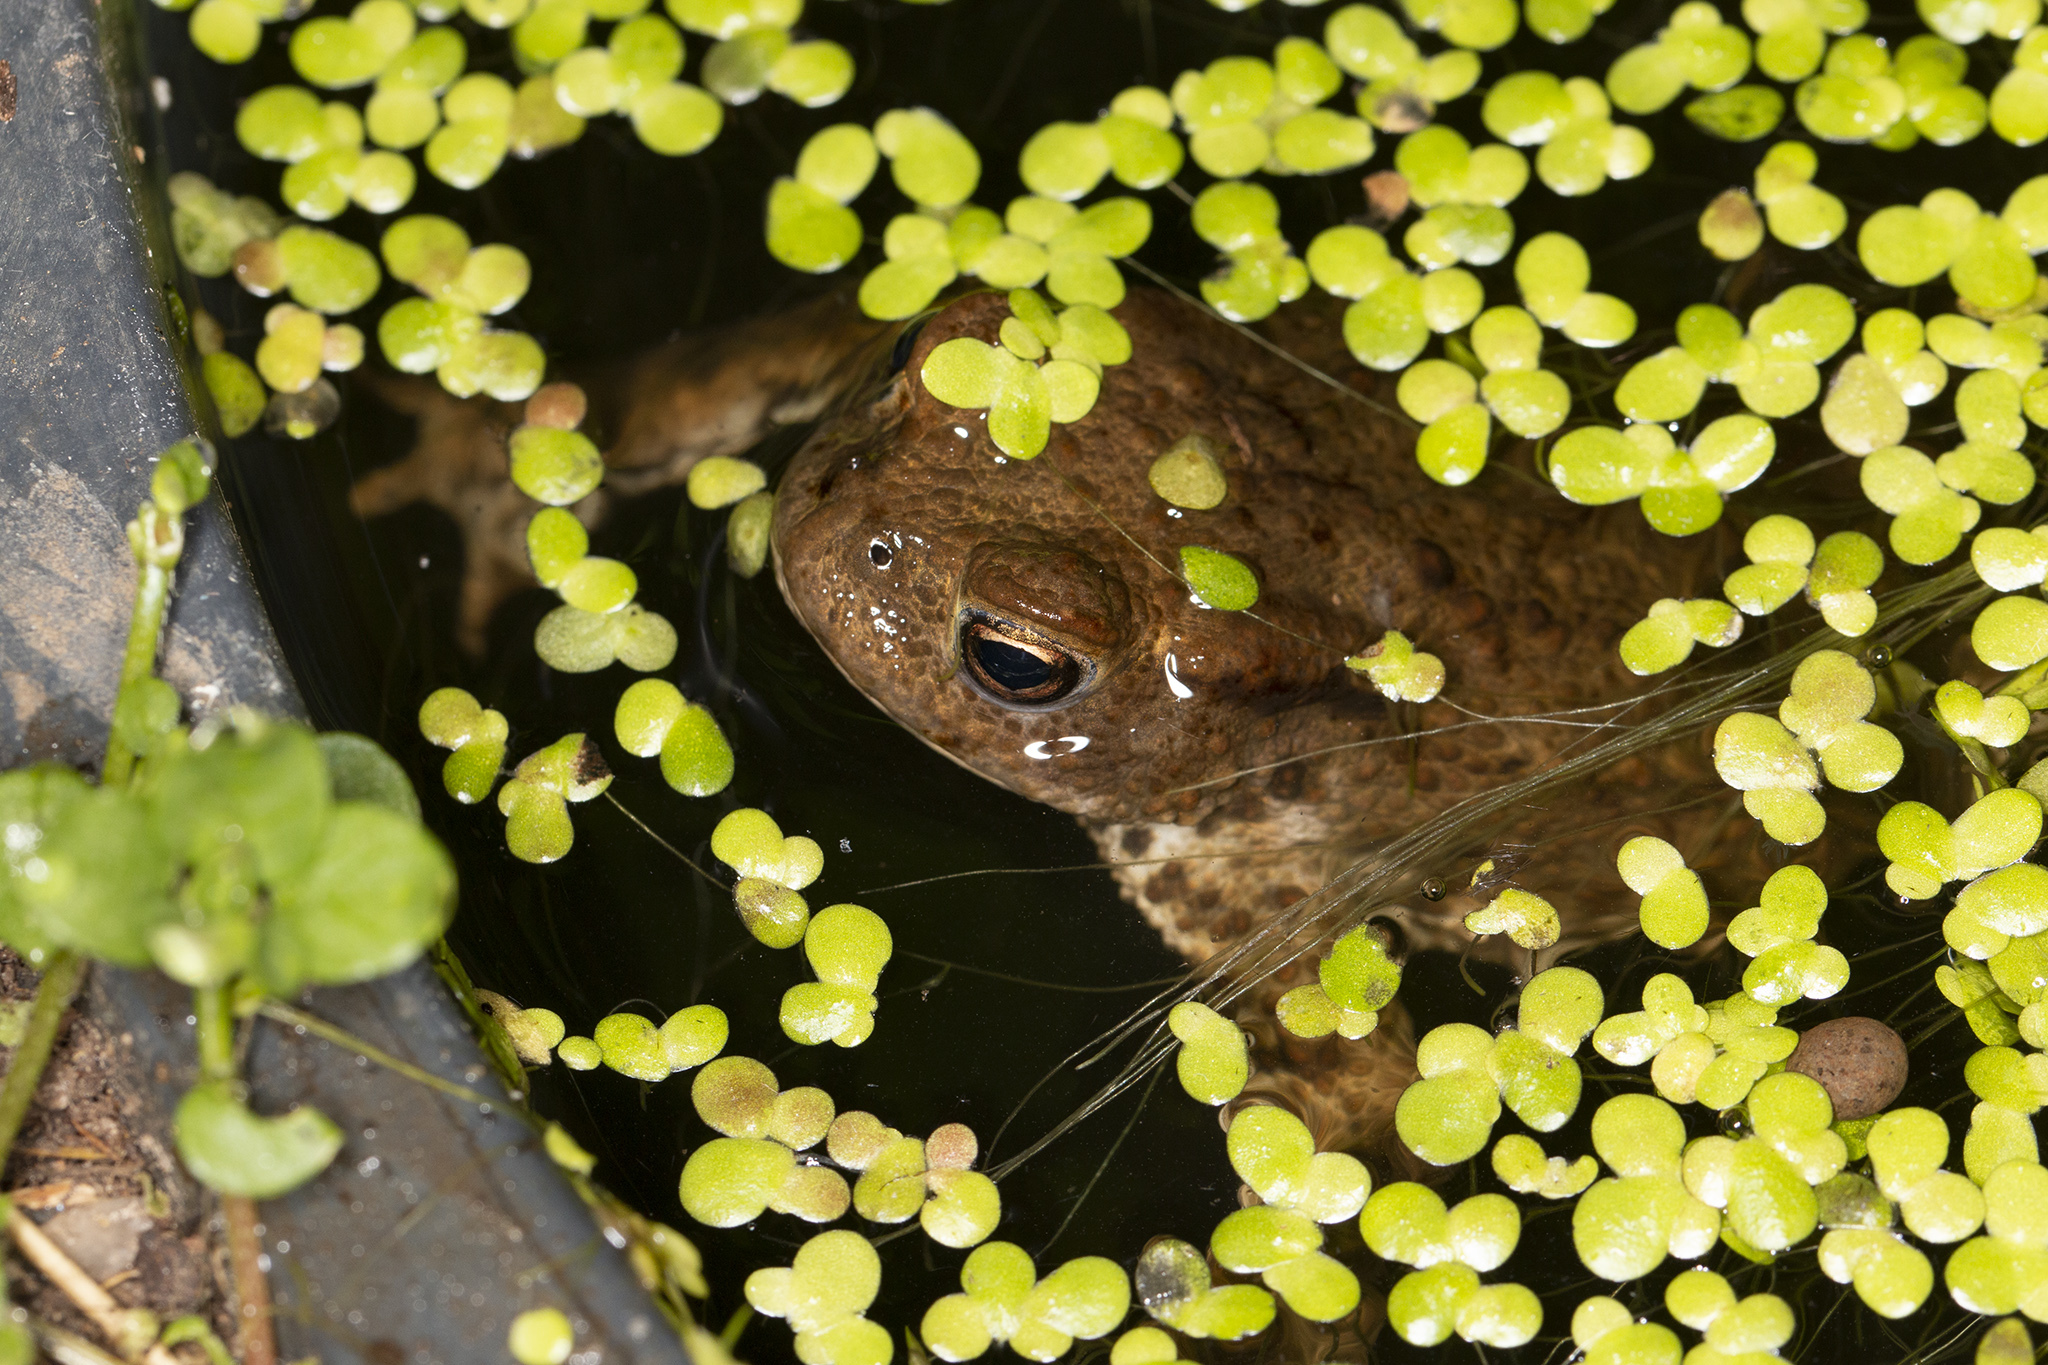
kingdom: Animalia
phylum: Chordata
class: Amphibia
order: Anura
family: Bufonidae
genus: Bufo
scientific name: Bufo bufo
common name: Common toad
